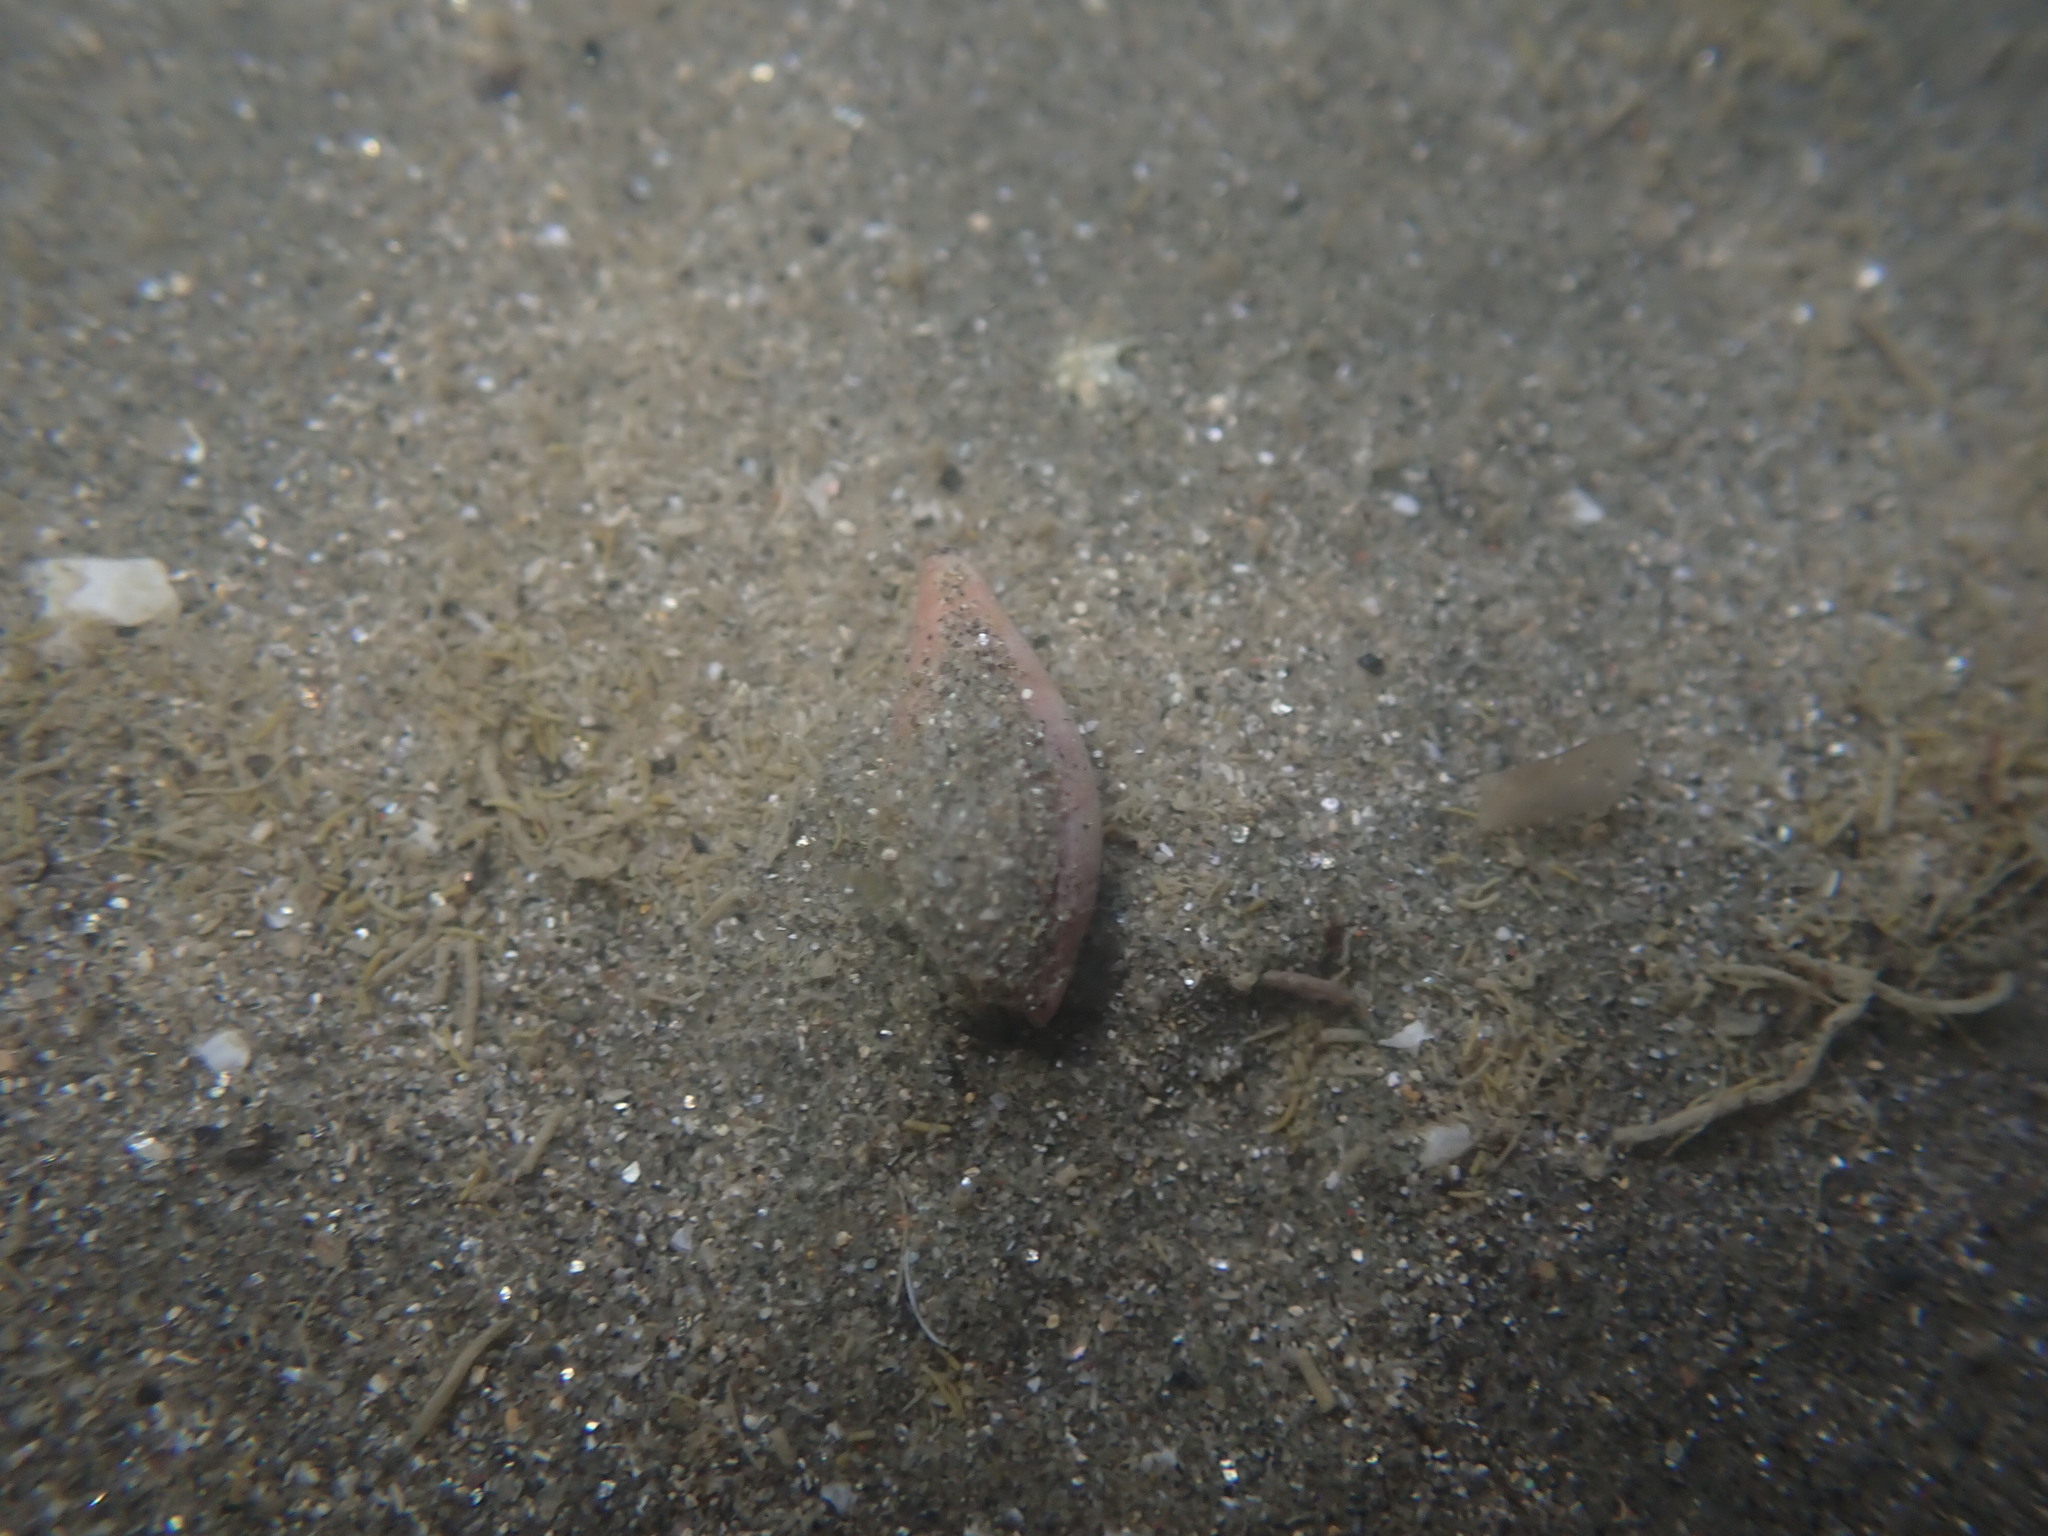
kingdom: Animalia
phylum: Mollusca
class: Gastropoda
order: Neogastropoda
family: Ancillariidae
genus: Amalda
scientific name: Amalda novaezelandiae
